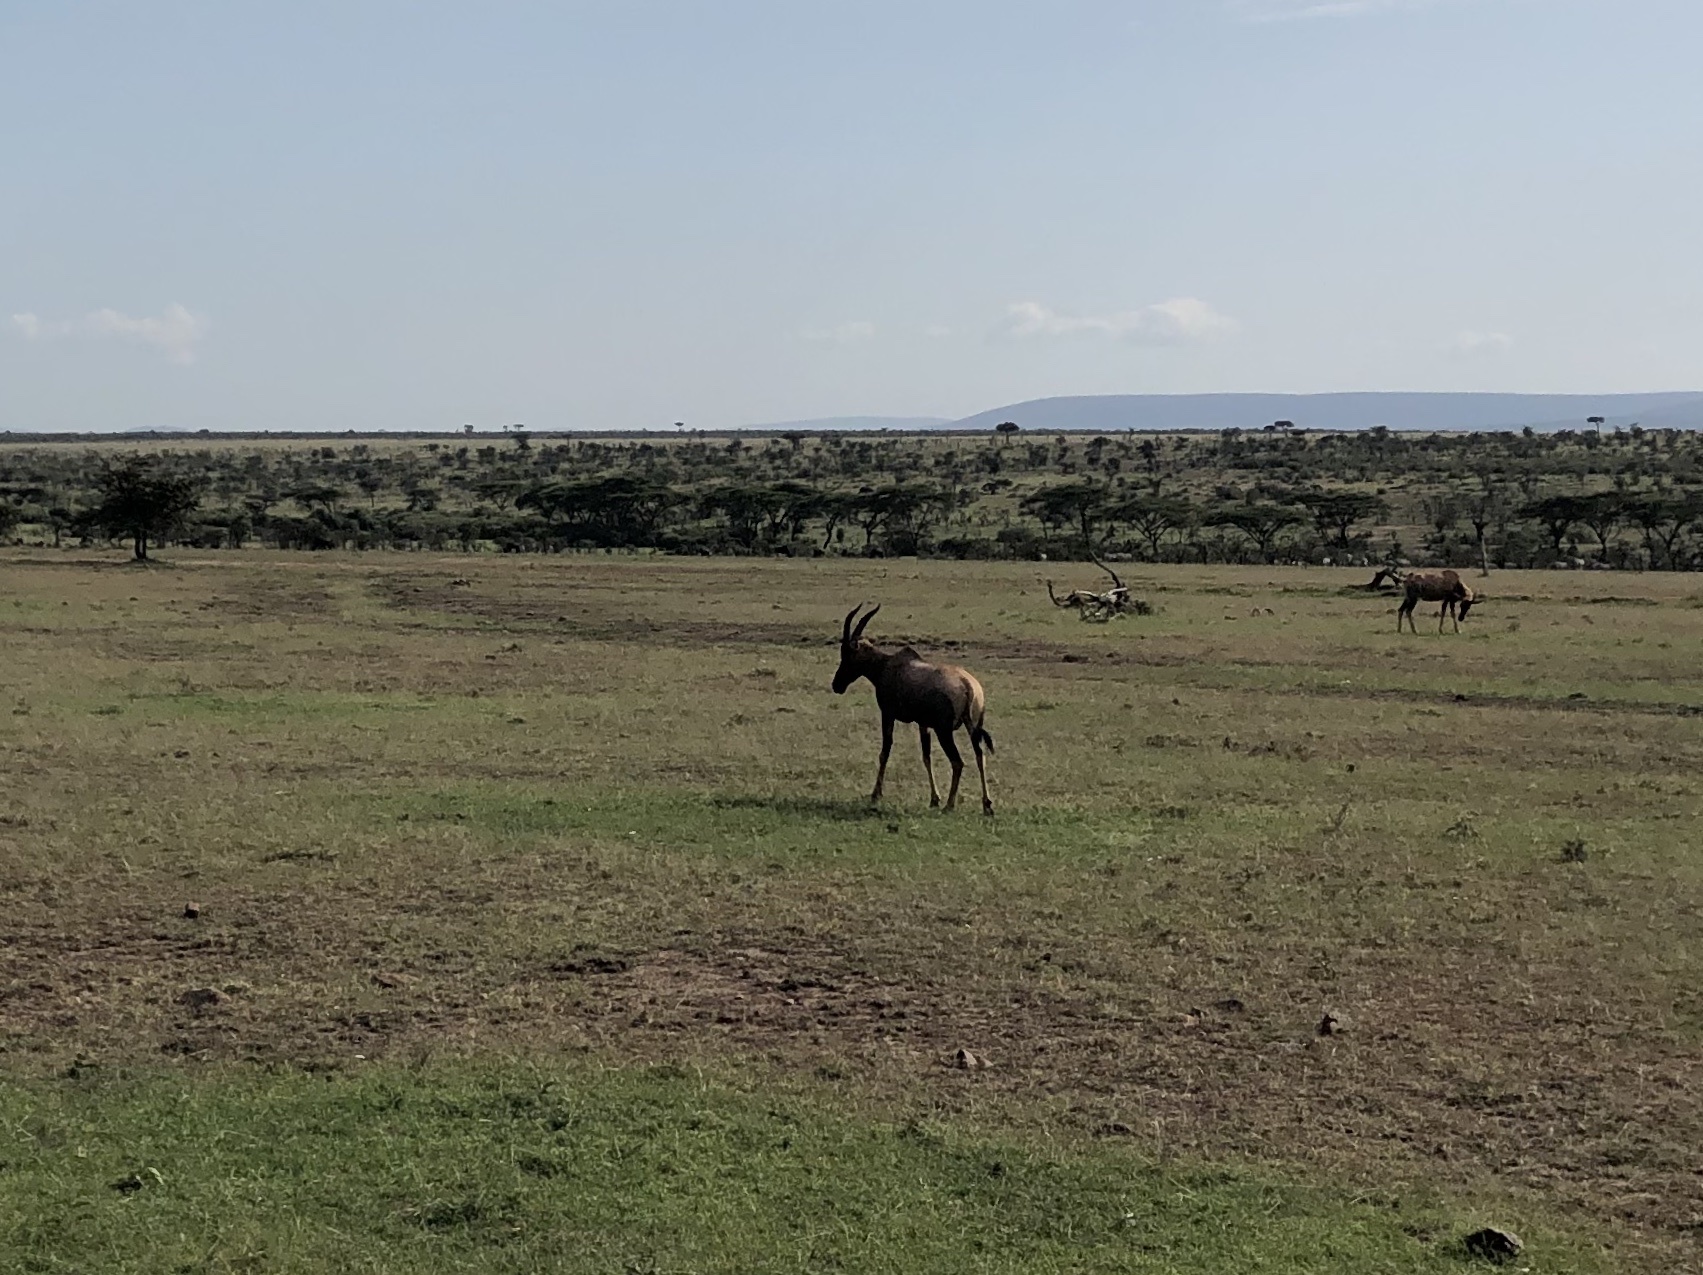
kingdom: Animalia
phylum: Chordata
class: Mammalia
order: Artiodactyla
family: Bovidae
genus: Damaliscus
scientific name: Damaliscus korrigum
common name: Topi
